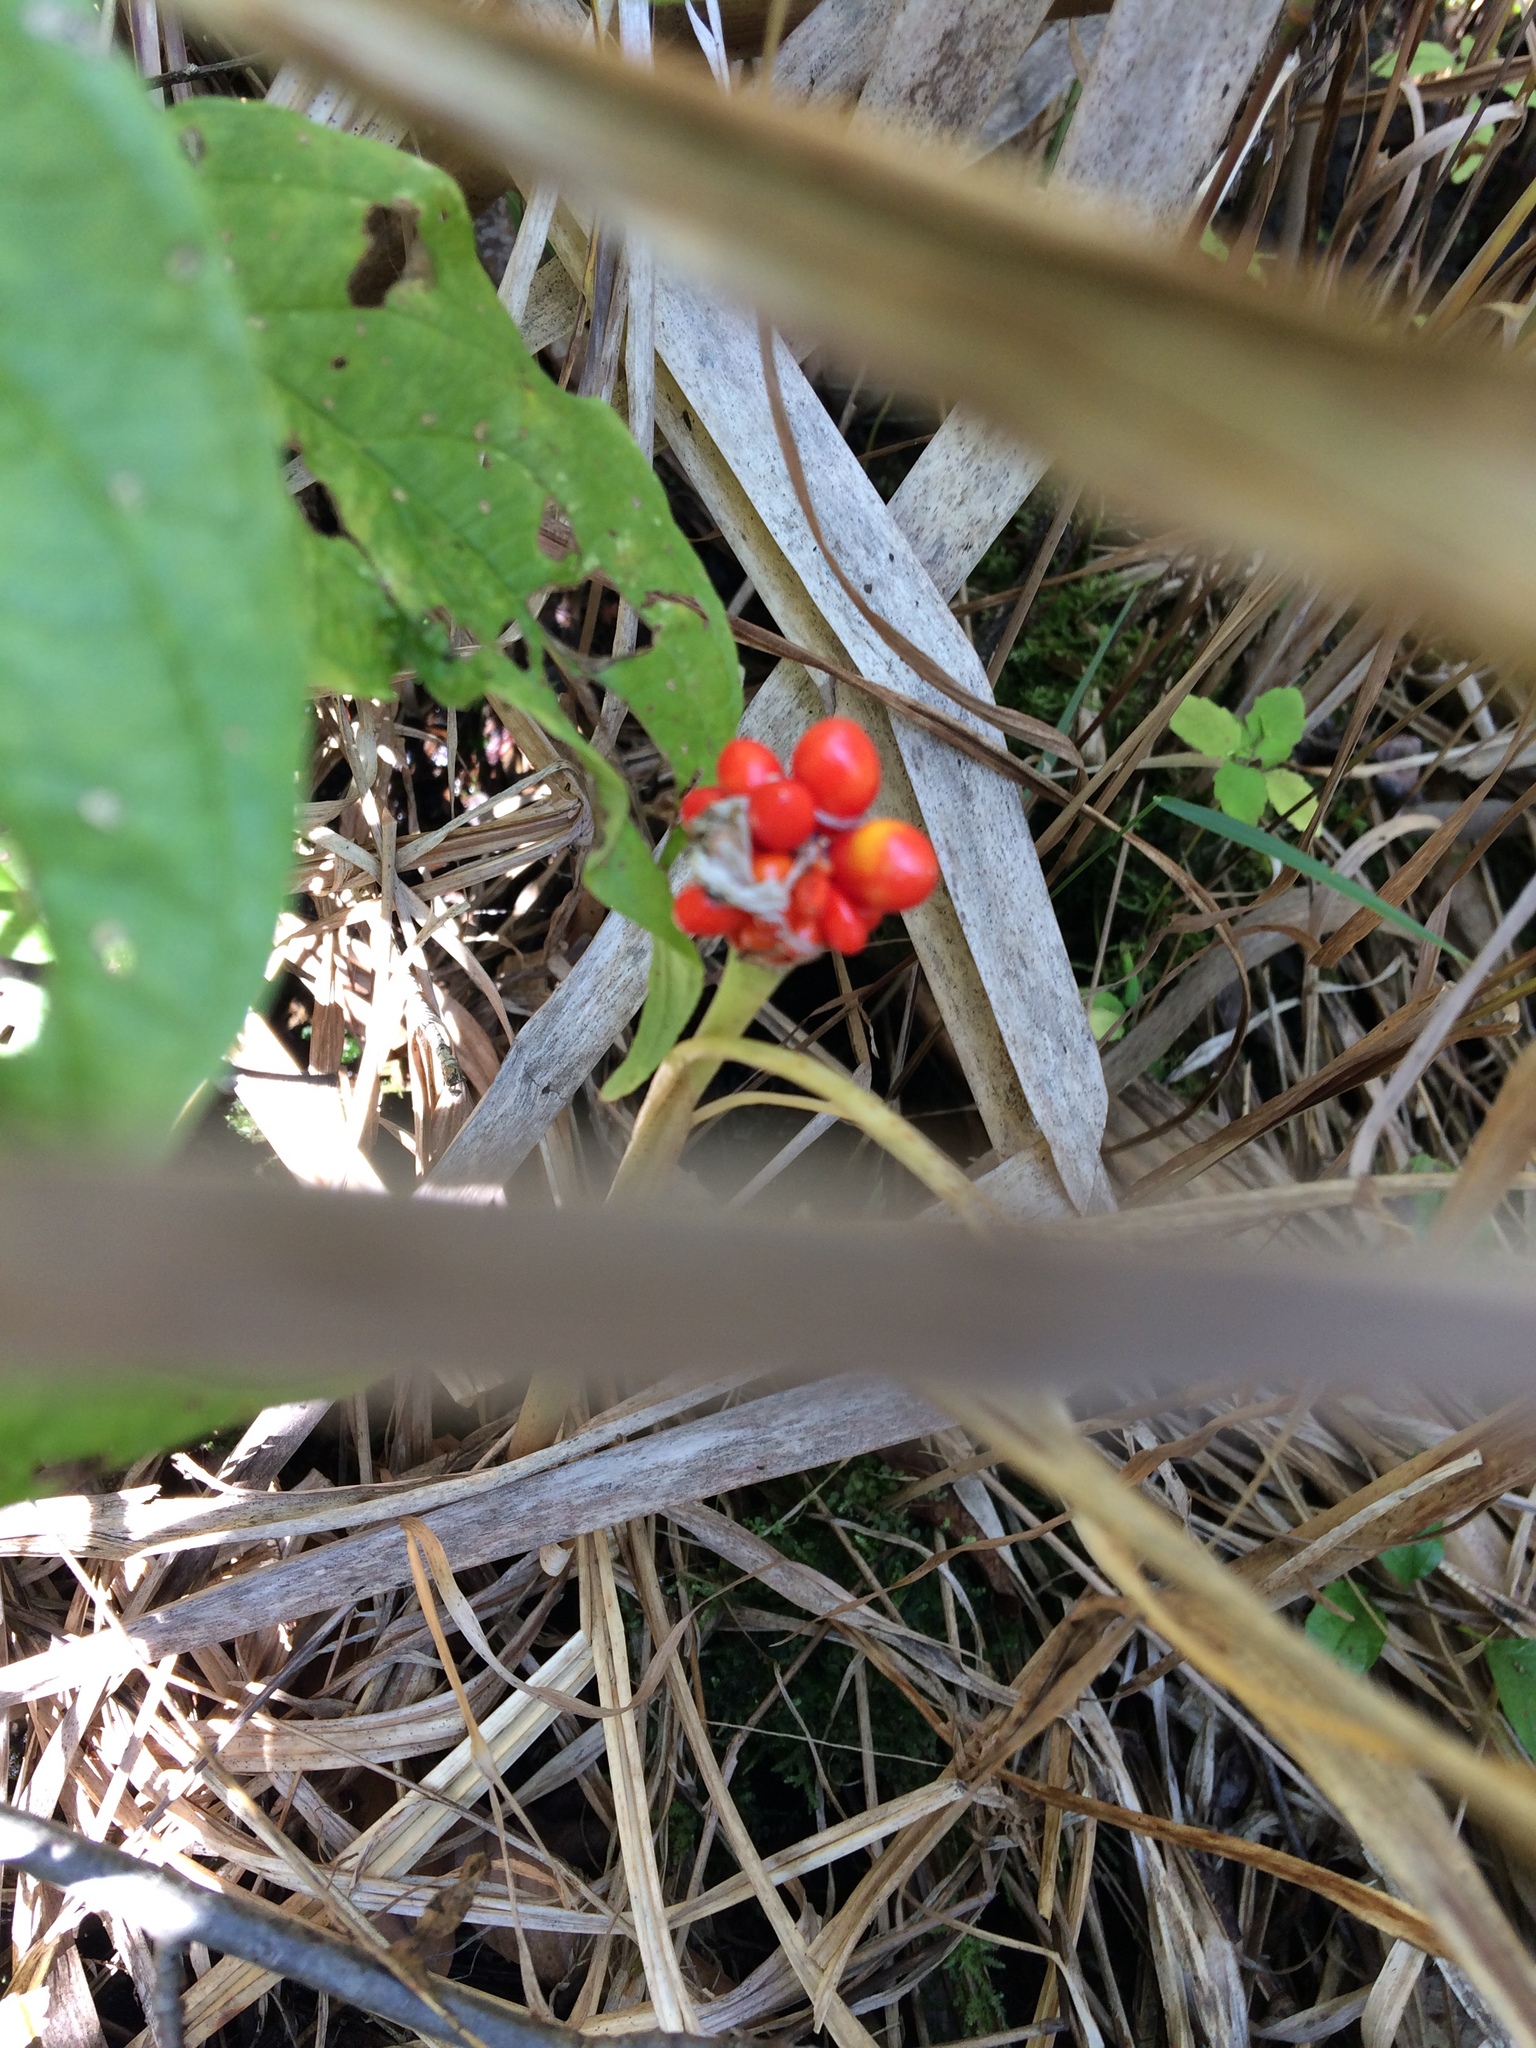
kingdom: Plantae
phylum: Tracheophyta
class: Liliopsida
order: Alismatales
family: Araceae
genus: Arisaema
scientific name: Arisaema triphyllum
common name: Jack-in-the-pulpit
